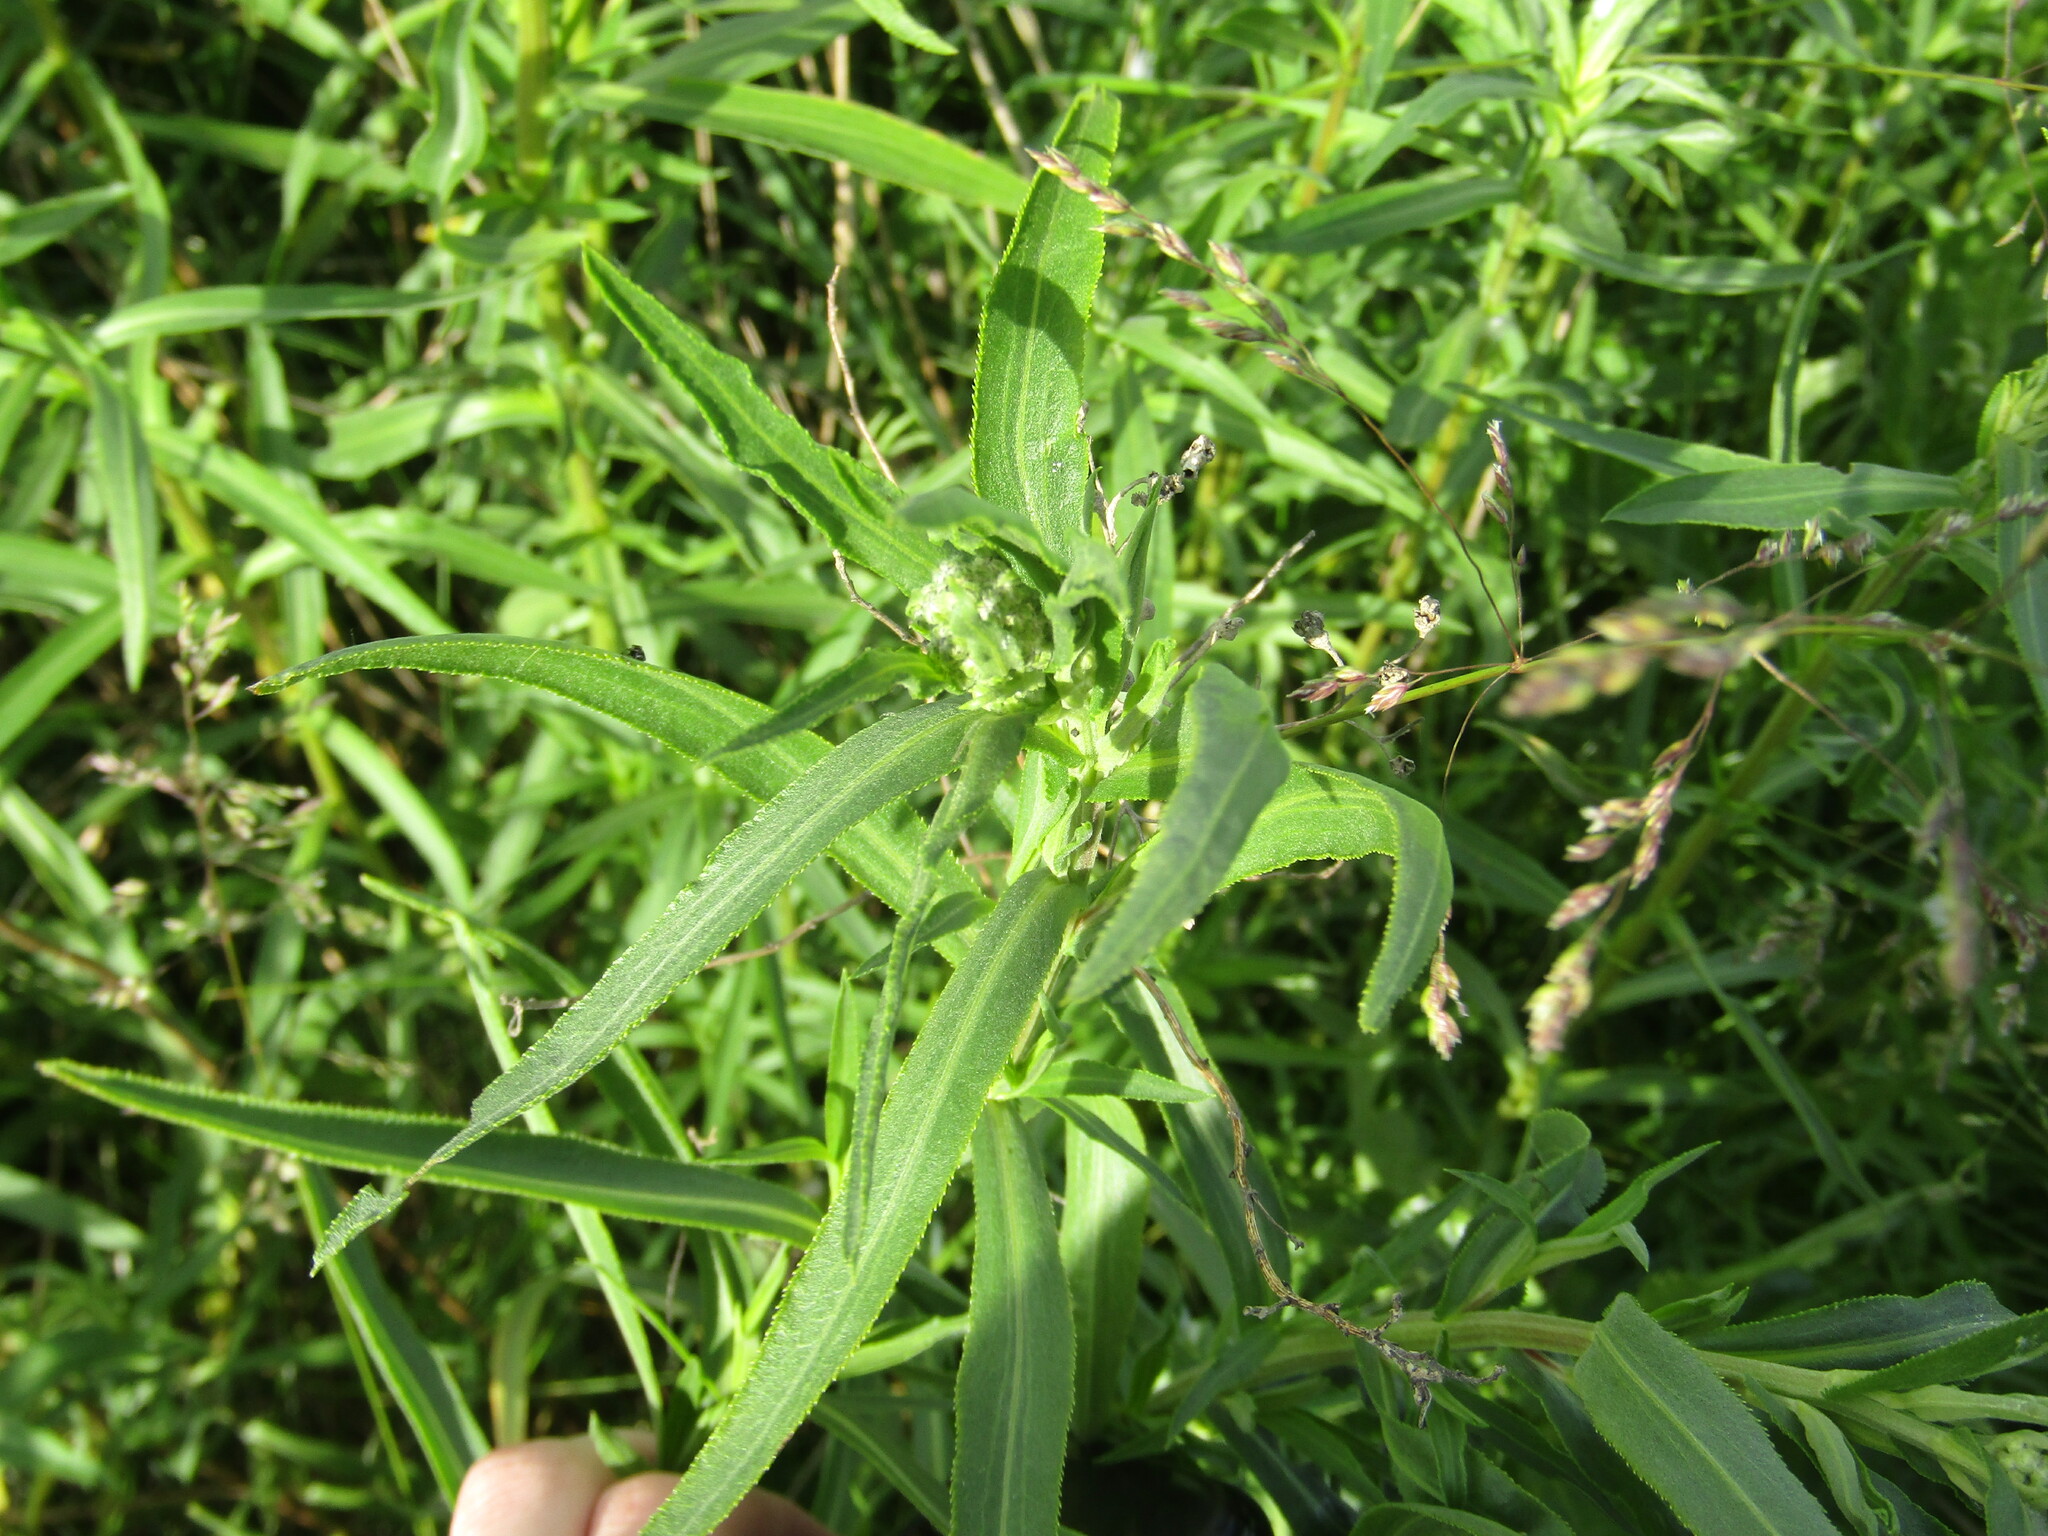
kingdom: Plantae
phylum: Tracheophyta
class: Magnoliopsida
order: Asterales
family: Asteraceae
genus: Achillea
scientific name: Achillea salicifolia
